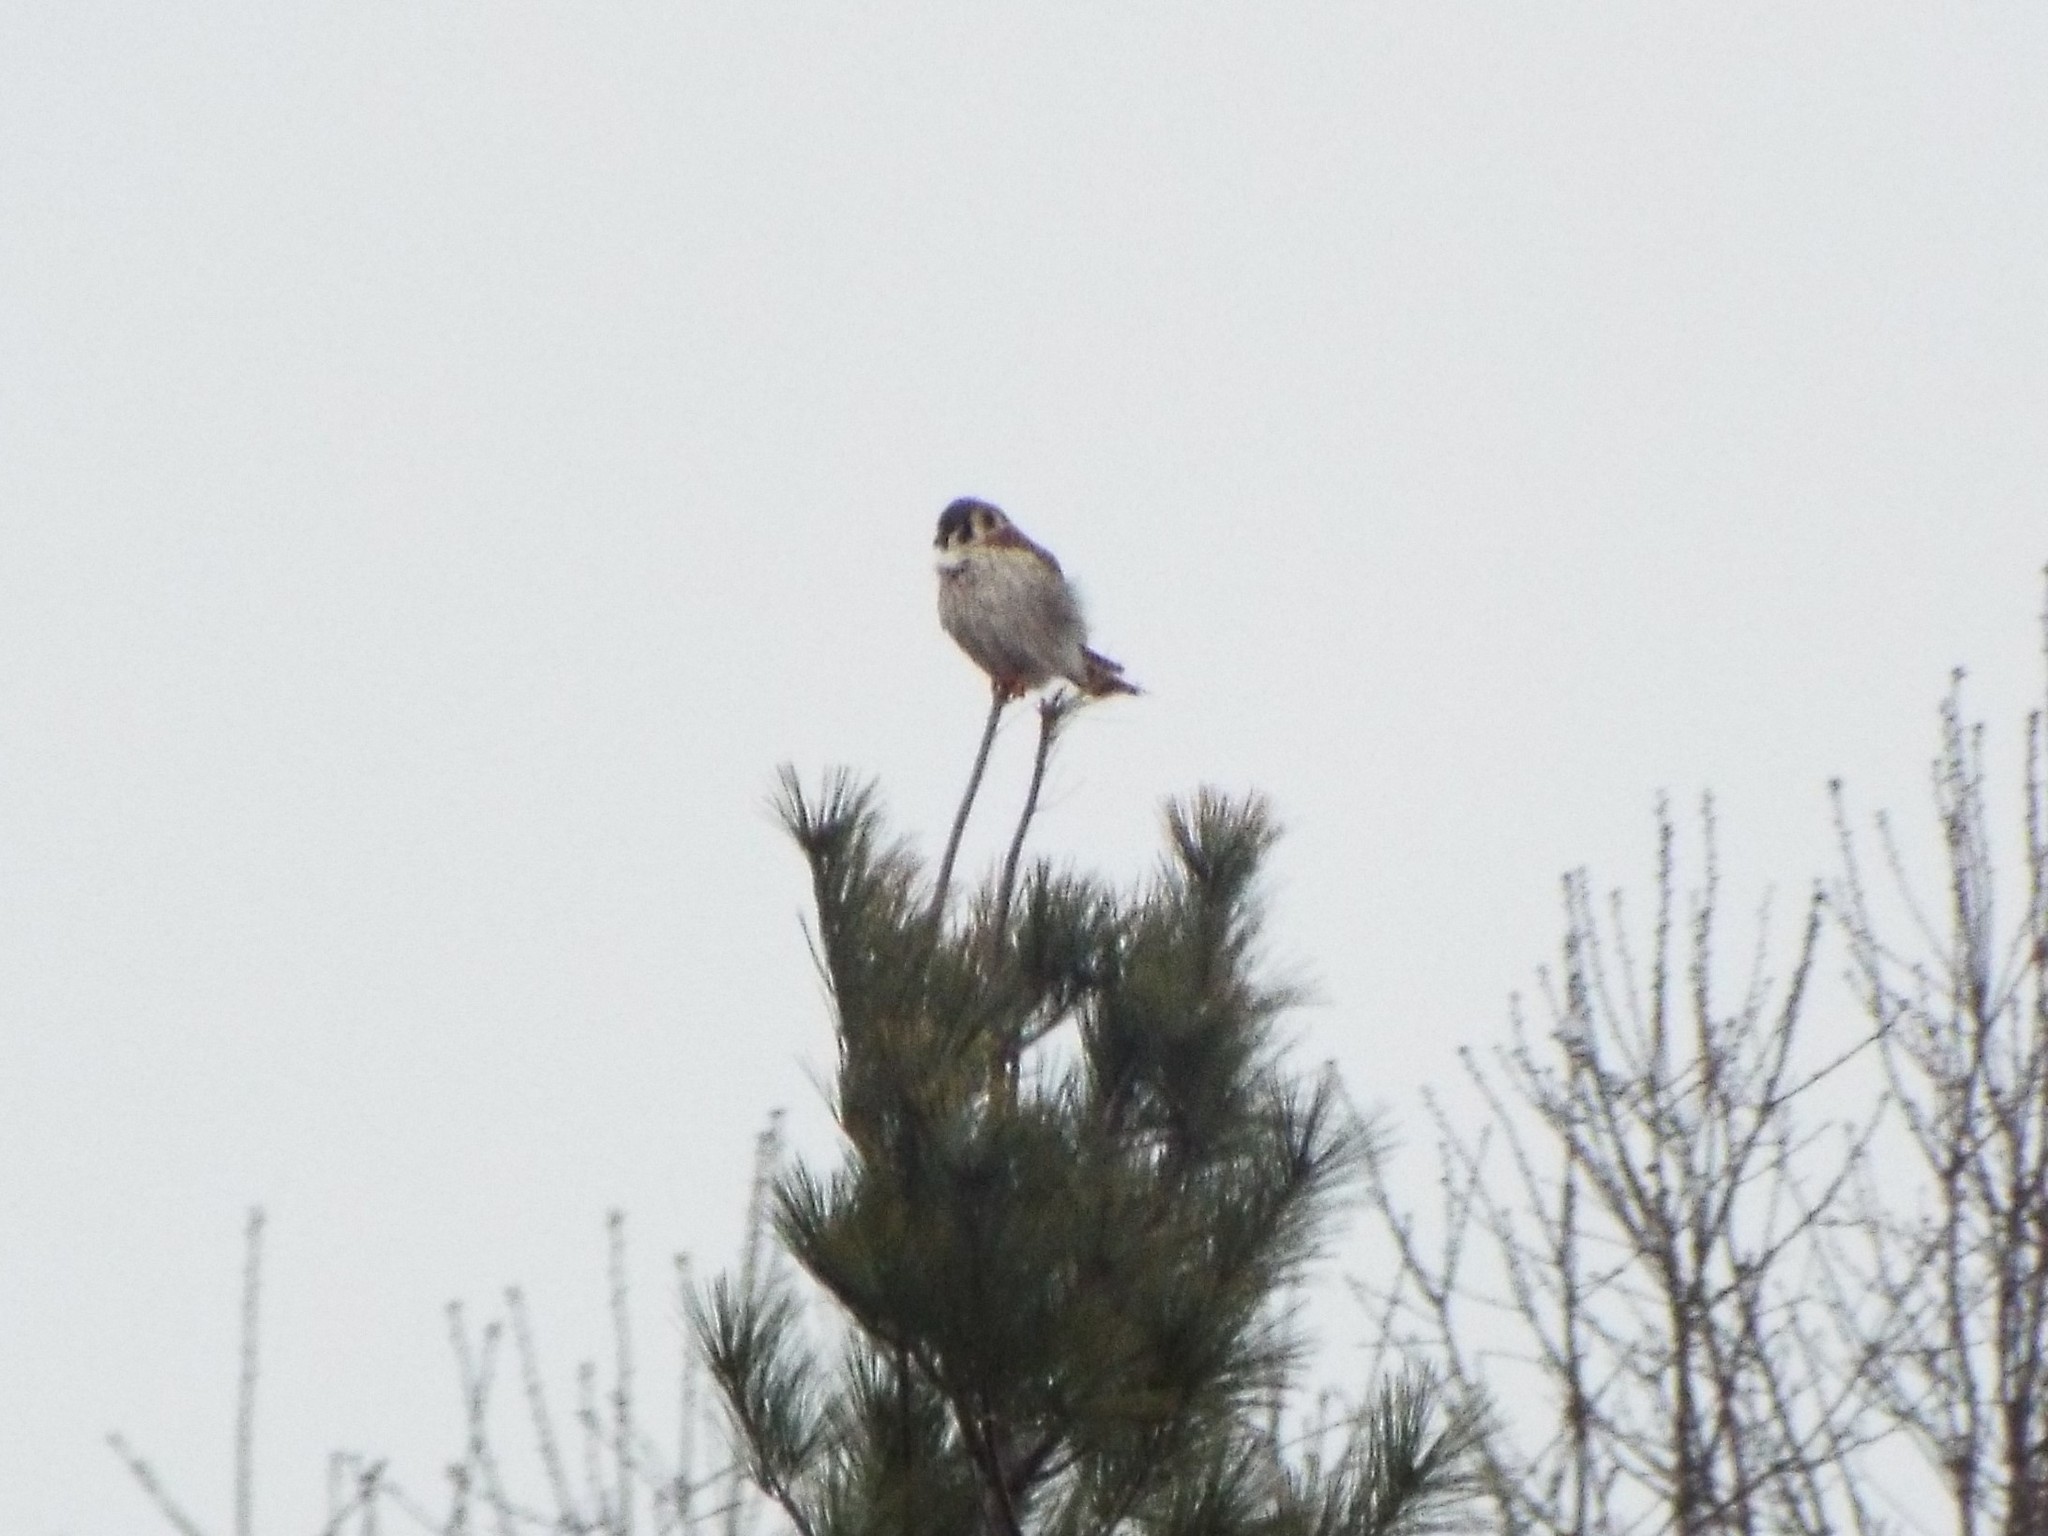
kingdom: Animalia
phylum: Chordata
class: Aves
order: Falconiformes
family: Falconidae
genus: Falco
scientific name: Falco sparverius
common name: American kestrel
